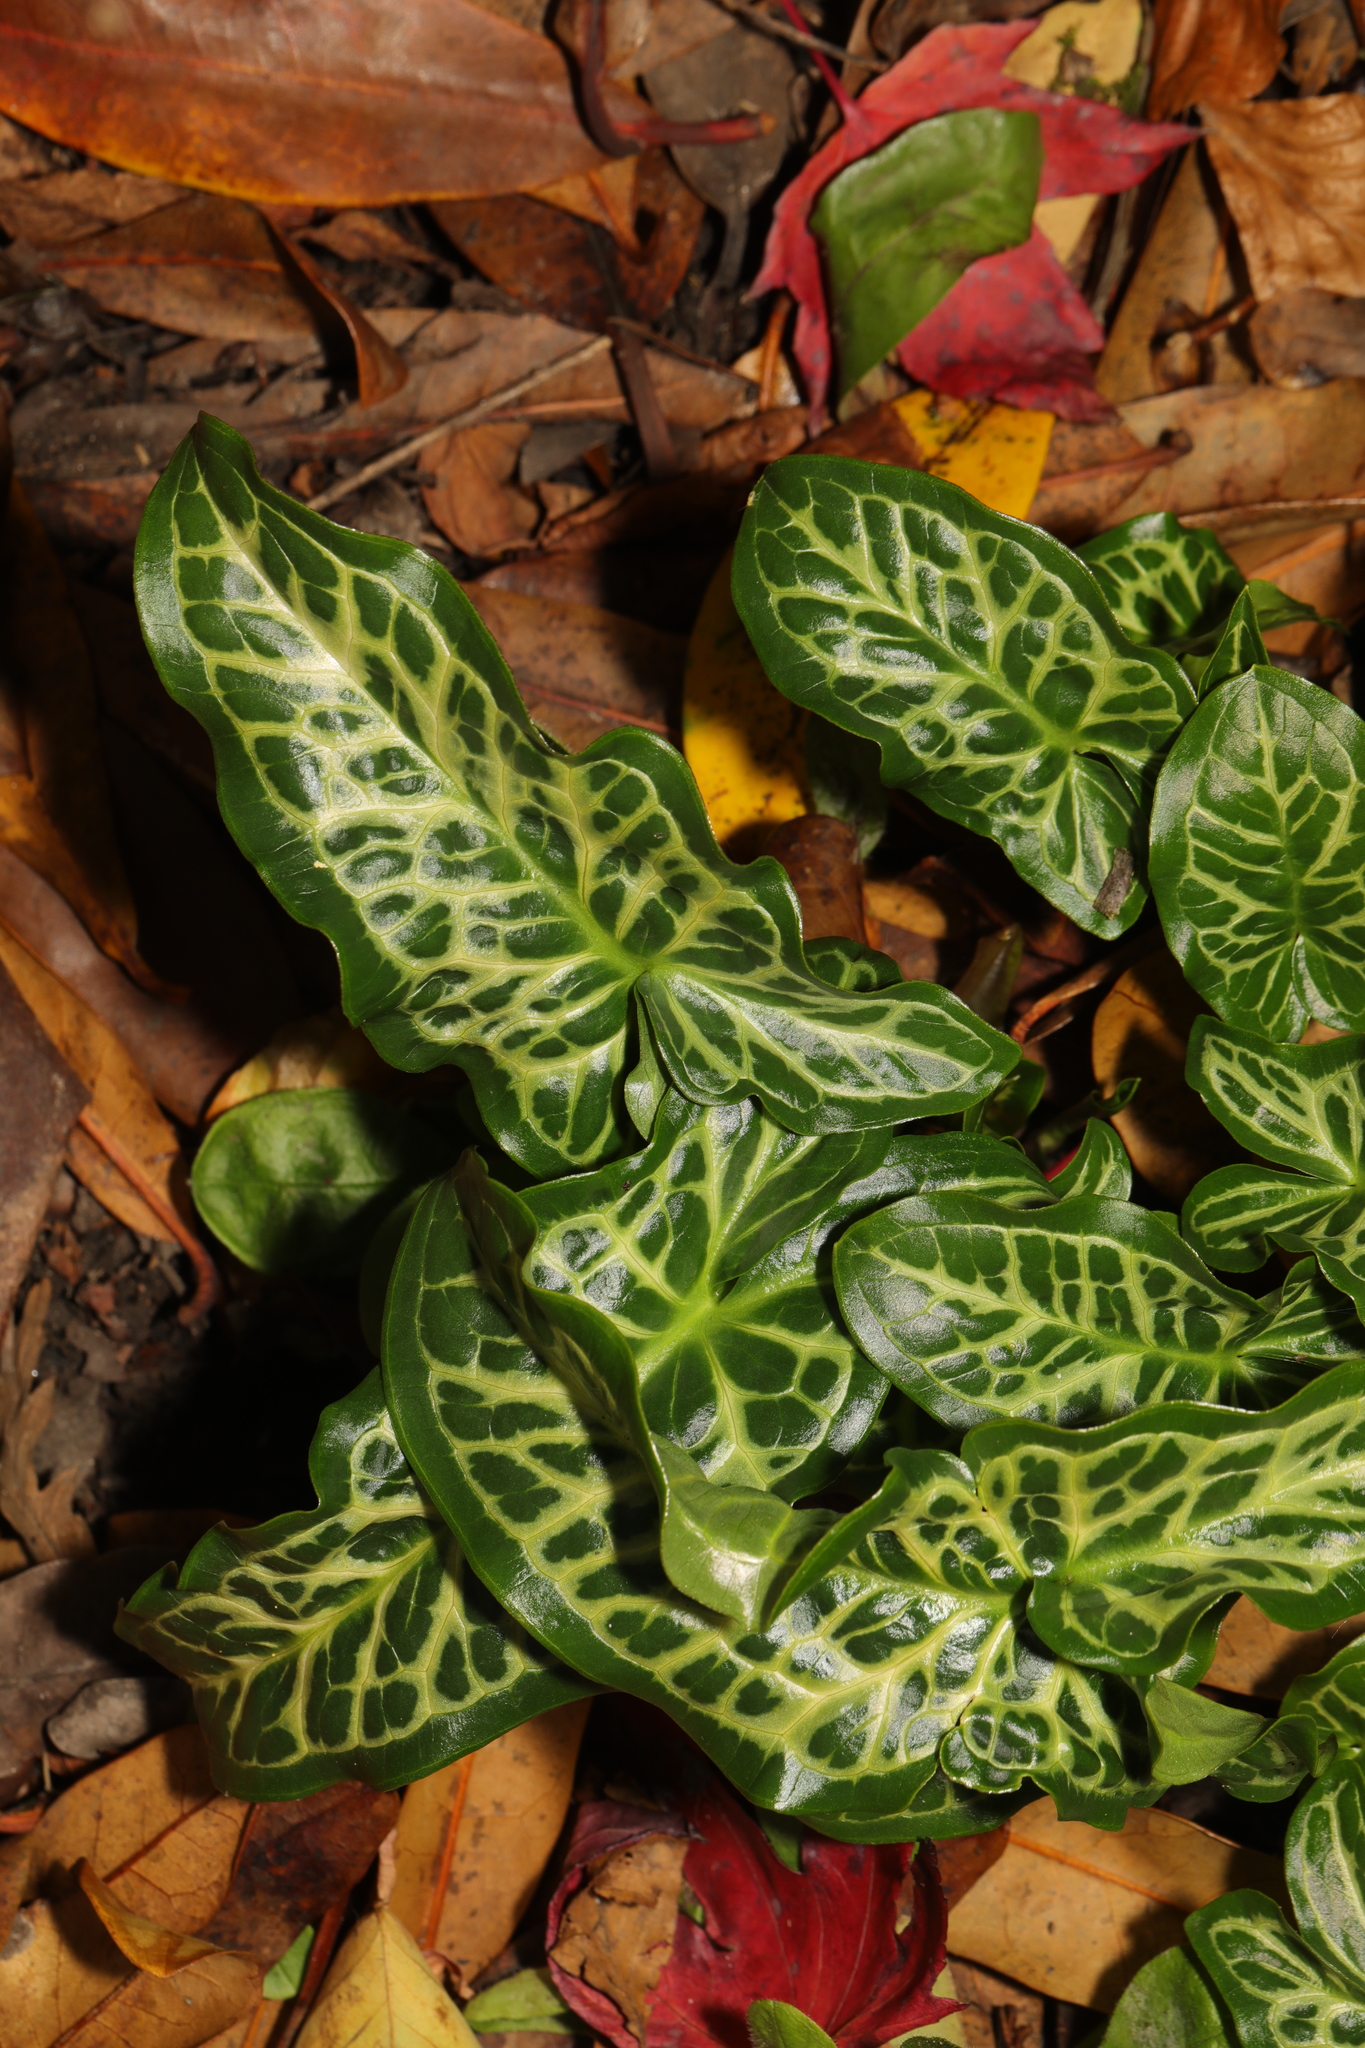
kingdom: Plantae
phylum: Tracheophyta
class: Liliopsida
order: Alismatales
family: Araceae
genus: Arum
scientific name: Arum italicum
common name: Italian lords-and-ladies
